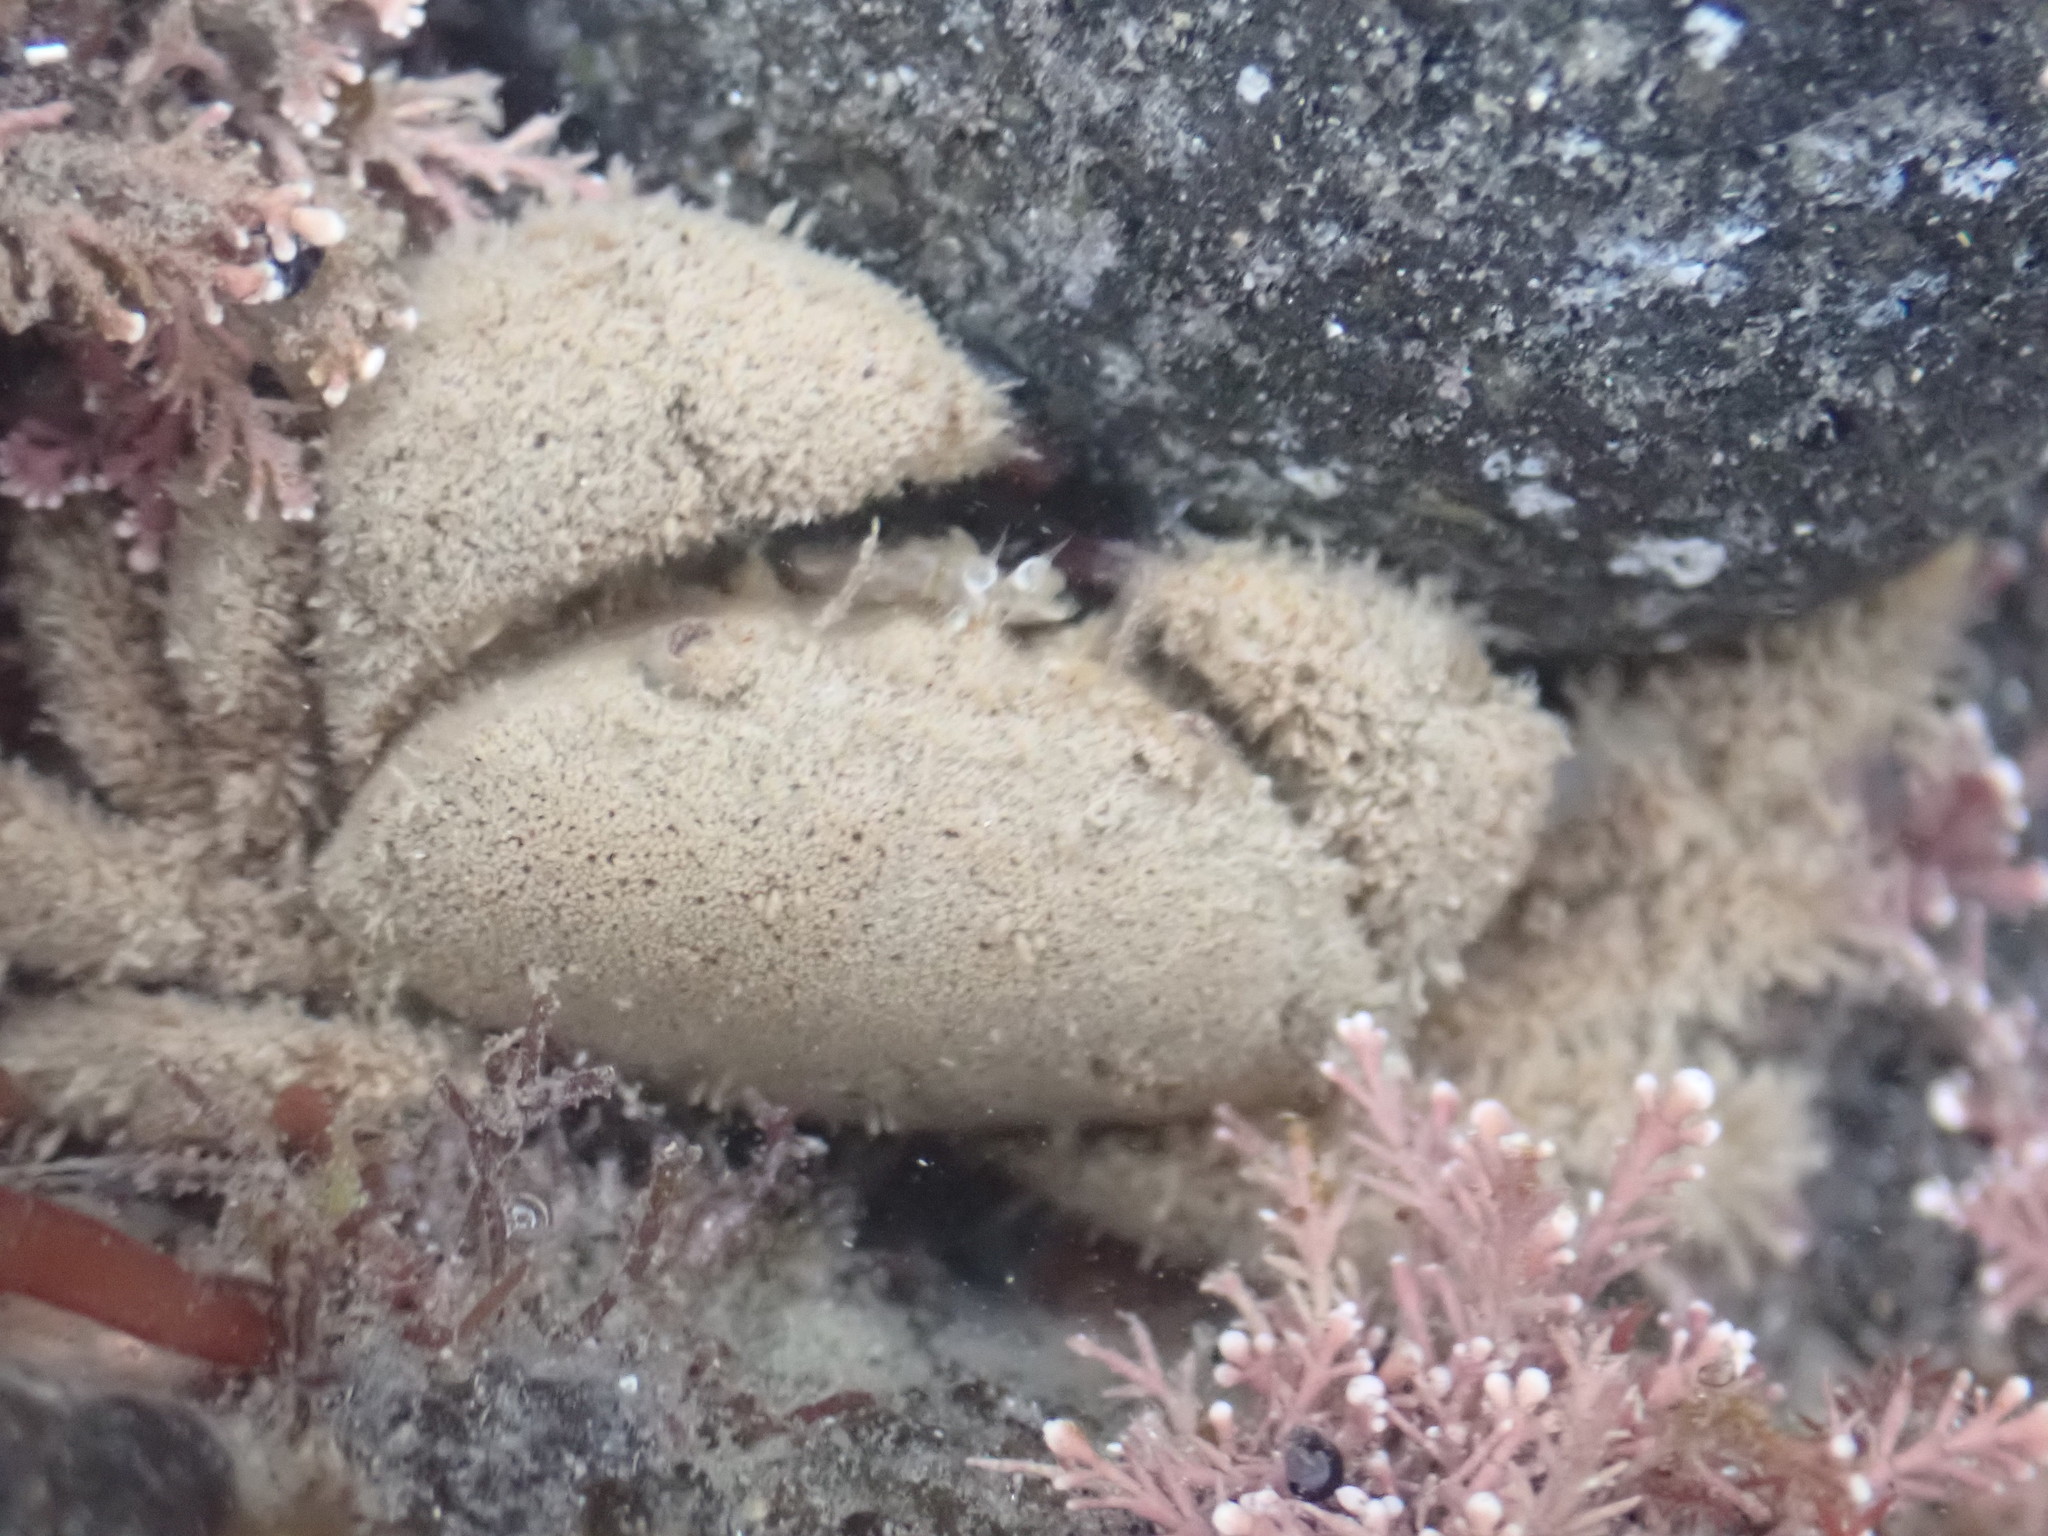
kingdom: Animalia
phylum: Arthropoda
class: Malacostraca
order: Decapoda
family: Pilumnidae
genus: Pilumnus
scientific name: Pilumnus lumpinus
